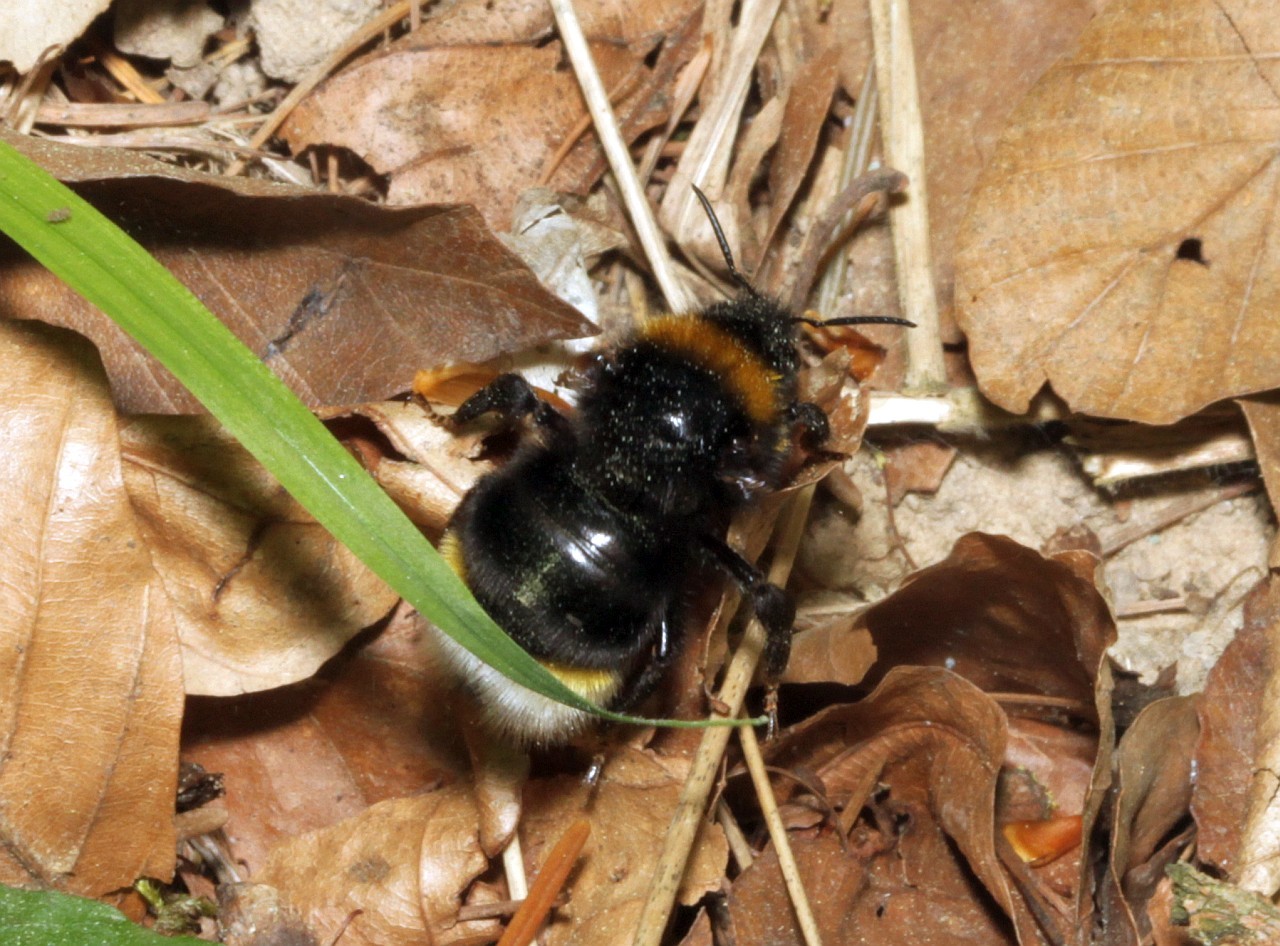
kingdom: Animalia
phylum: Arthropoda
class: Insecta
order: Hymenoptera
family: Apidae
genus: Bombus
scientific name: Bombus vestalis
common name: Vestal cuckoo bee
